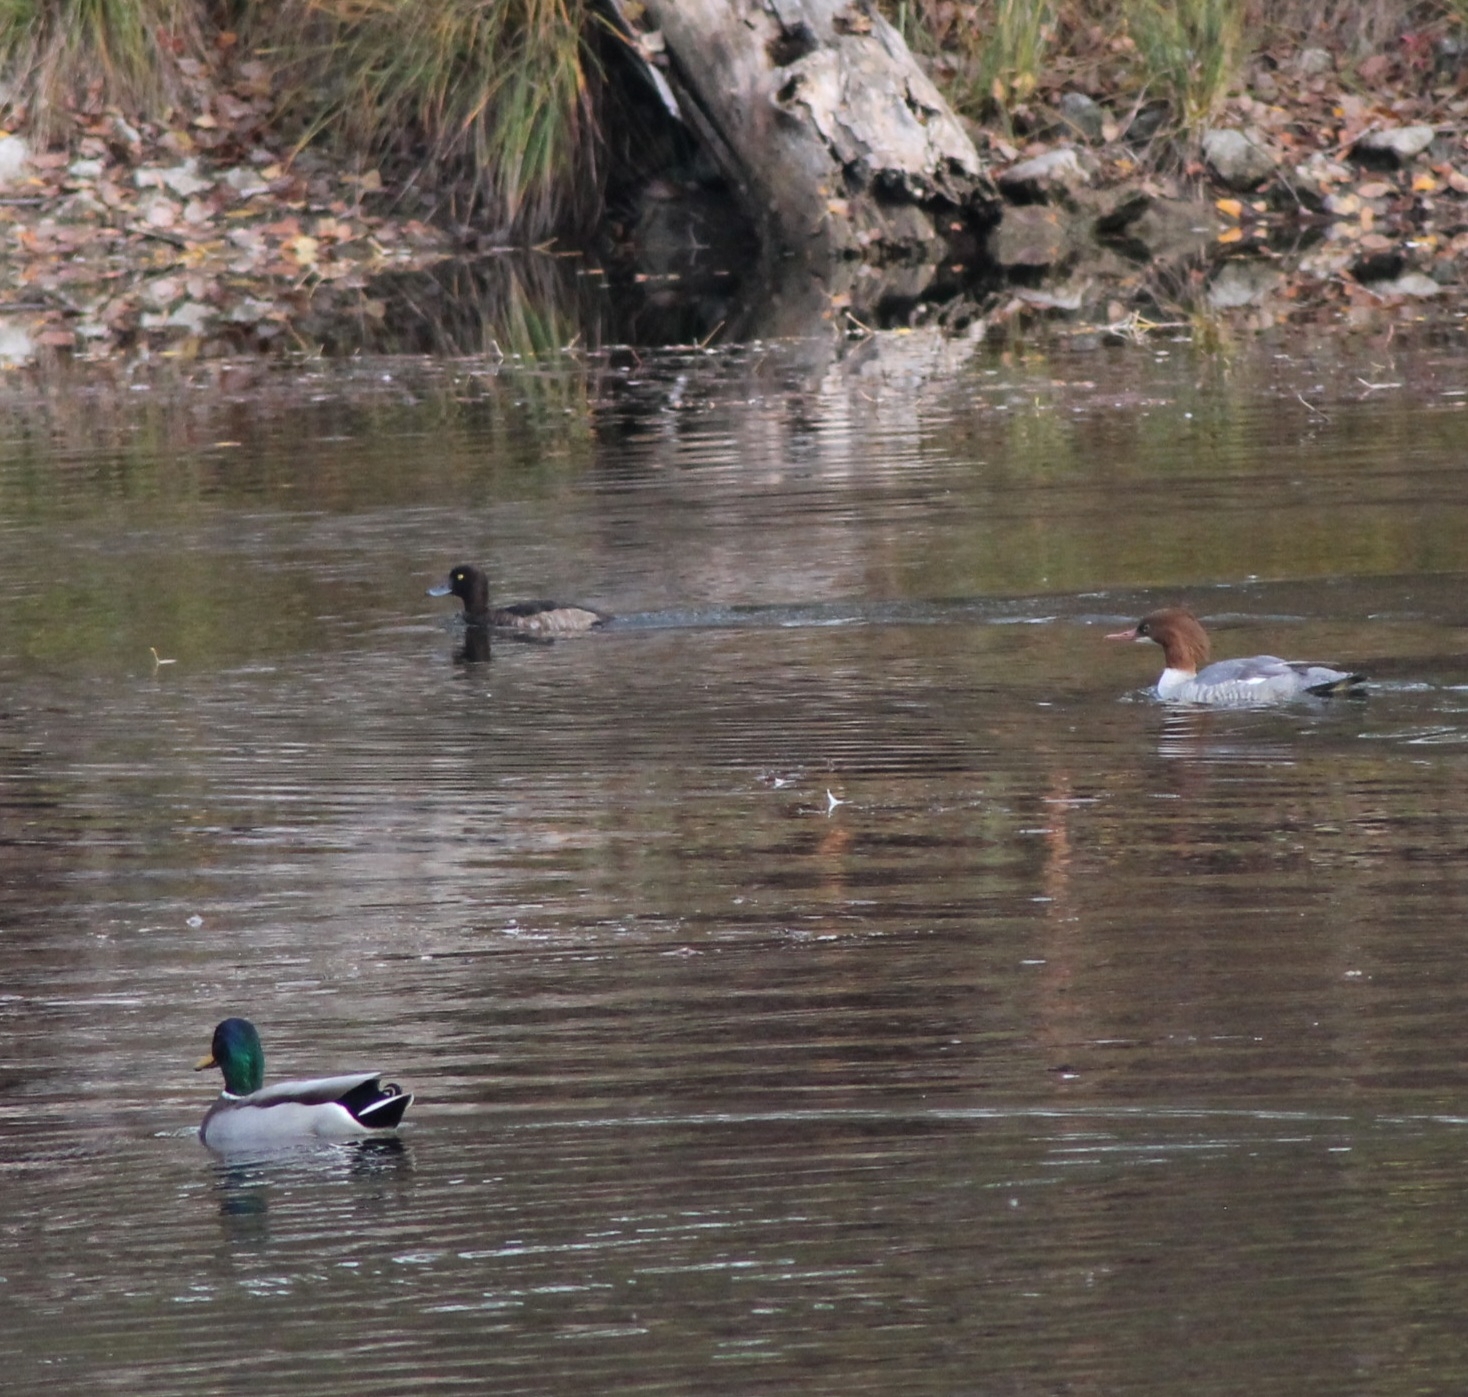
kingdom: Animalia
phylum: Chordata
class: Aves
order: Anseriformes
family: Anatidae
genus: Aythya
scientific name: Aythya fuligula
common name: Tufted duck
